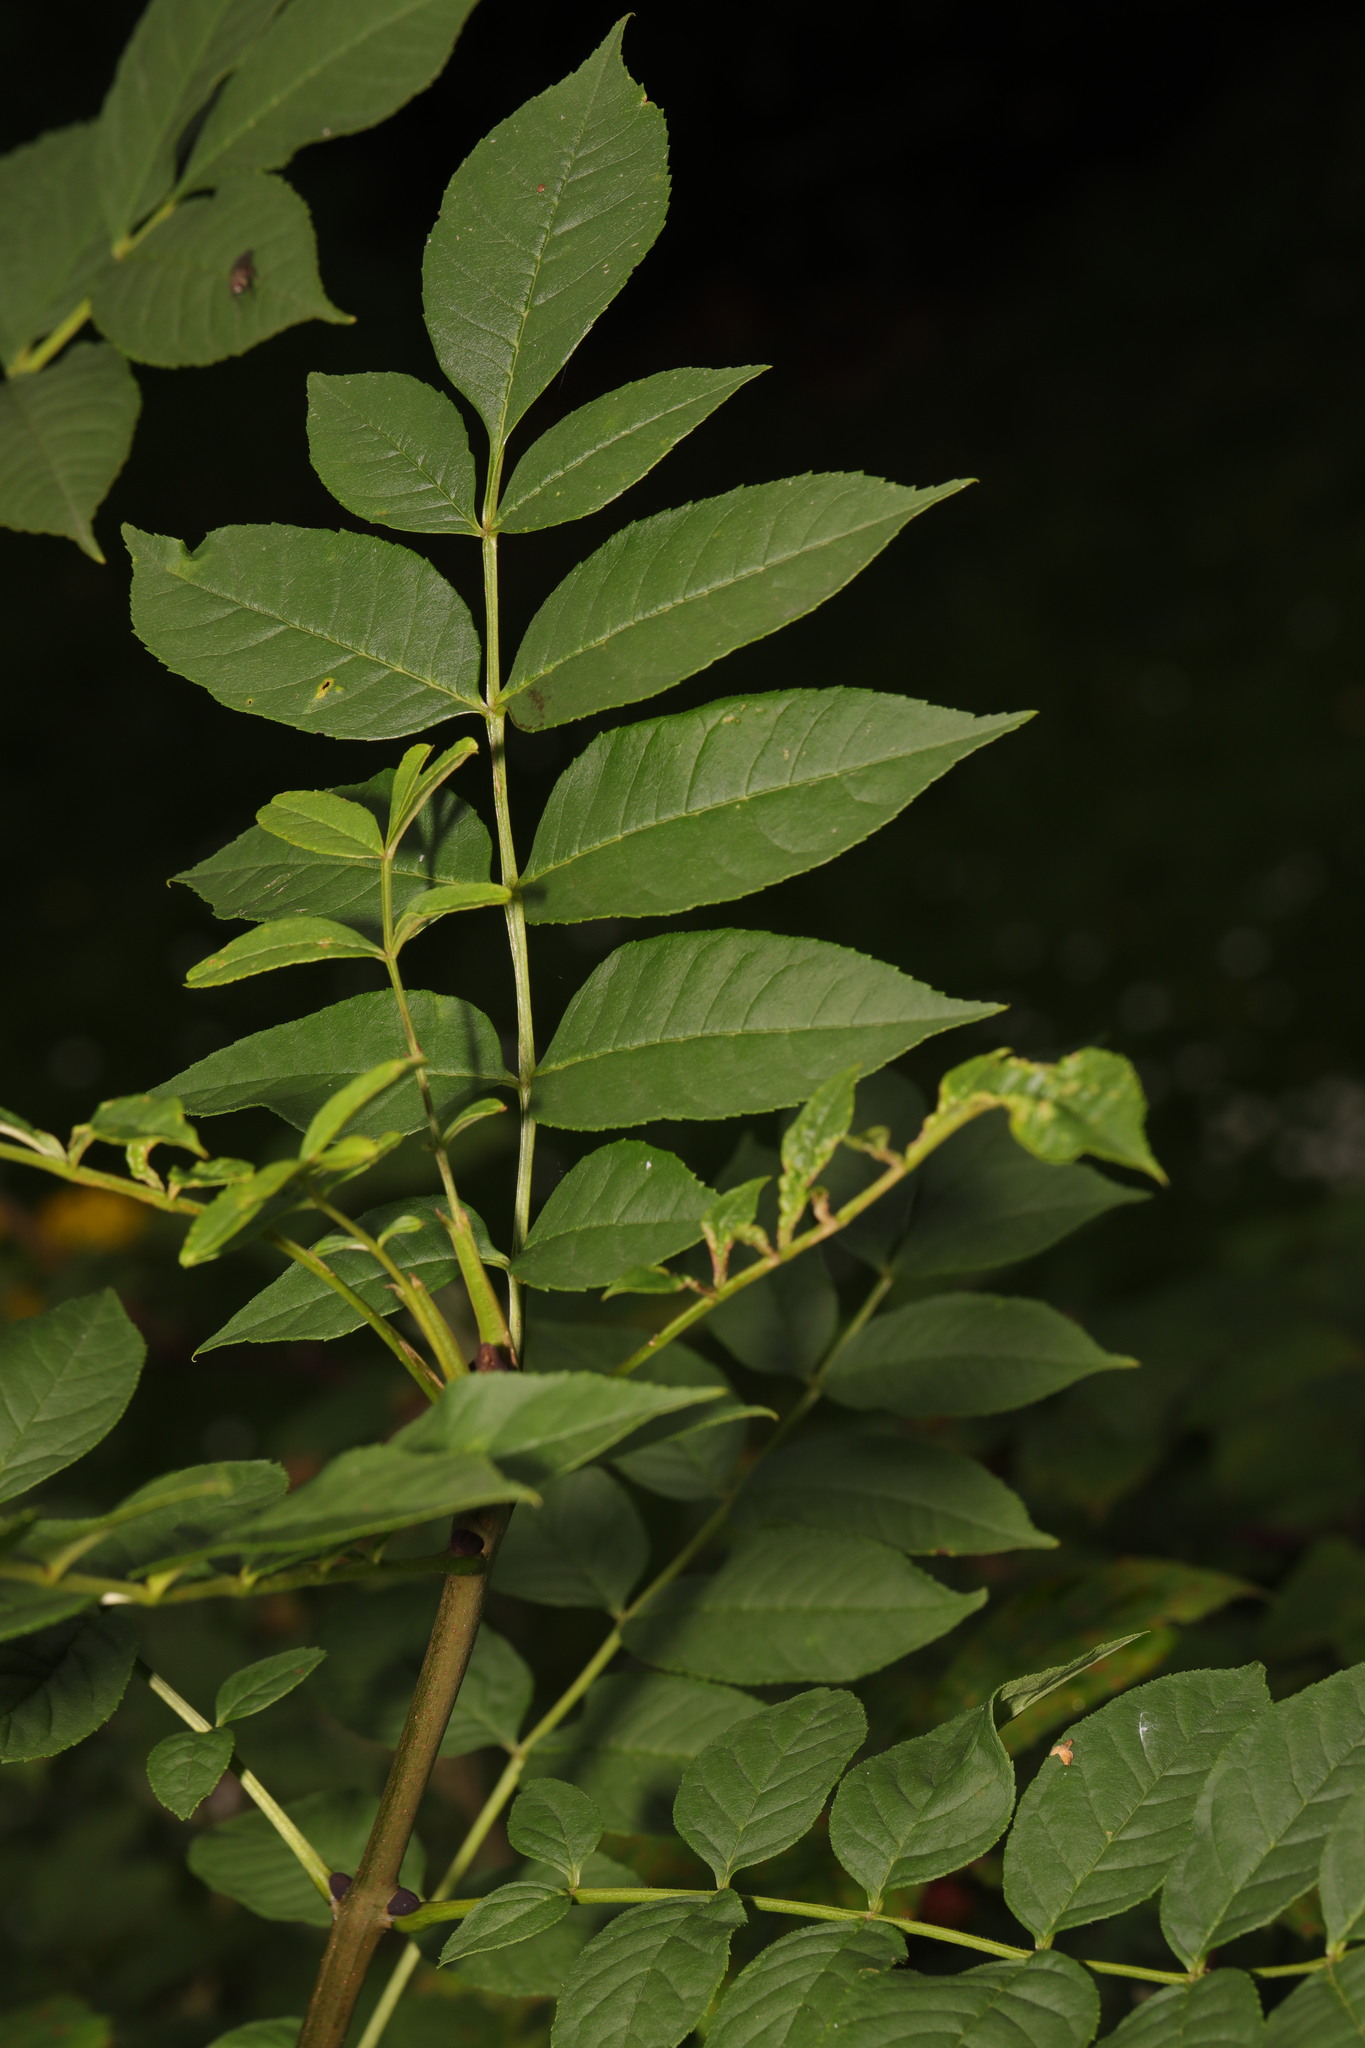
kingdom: Plantae
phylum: Tracheophyta
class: Magnoliopsida
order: Lamiales
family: Oleaceae
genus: Fraxinus
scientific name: Fraxinus excelsior
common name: European ash
